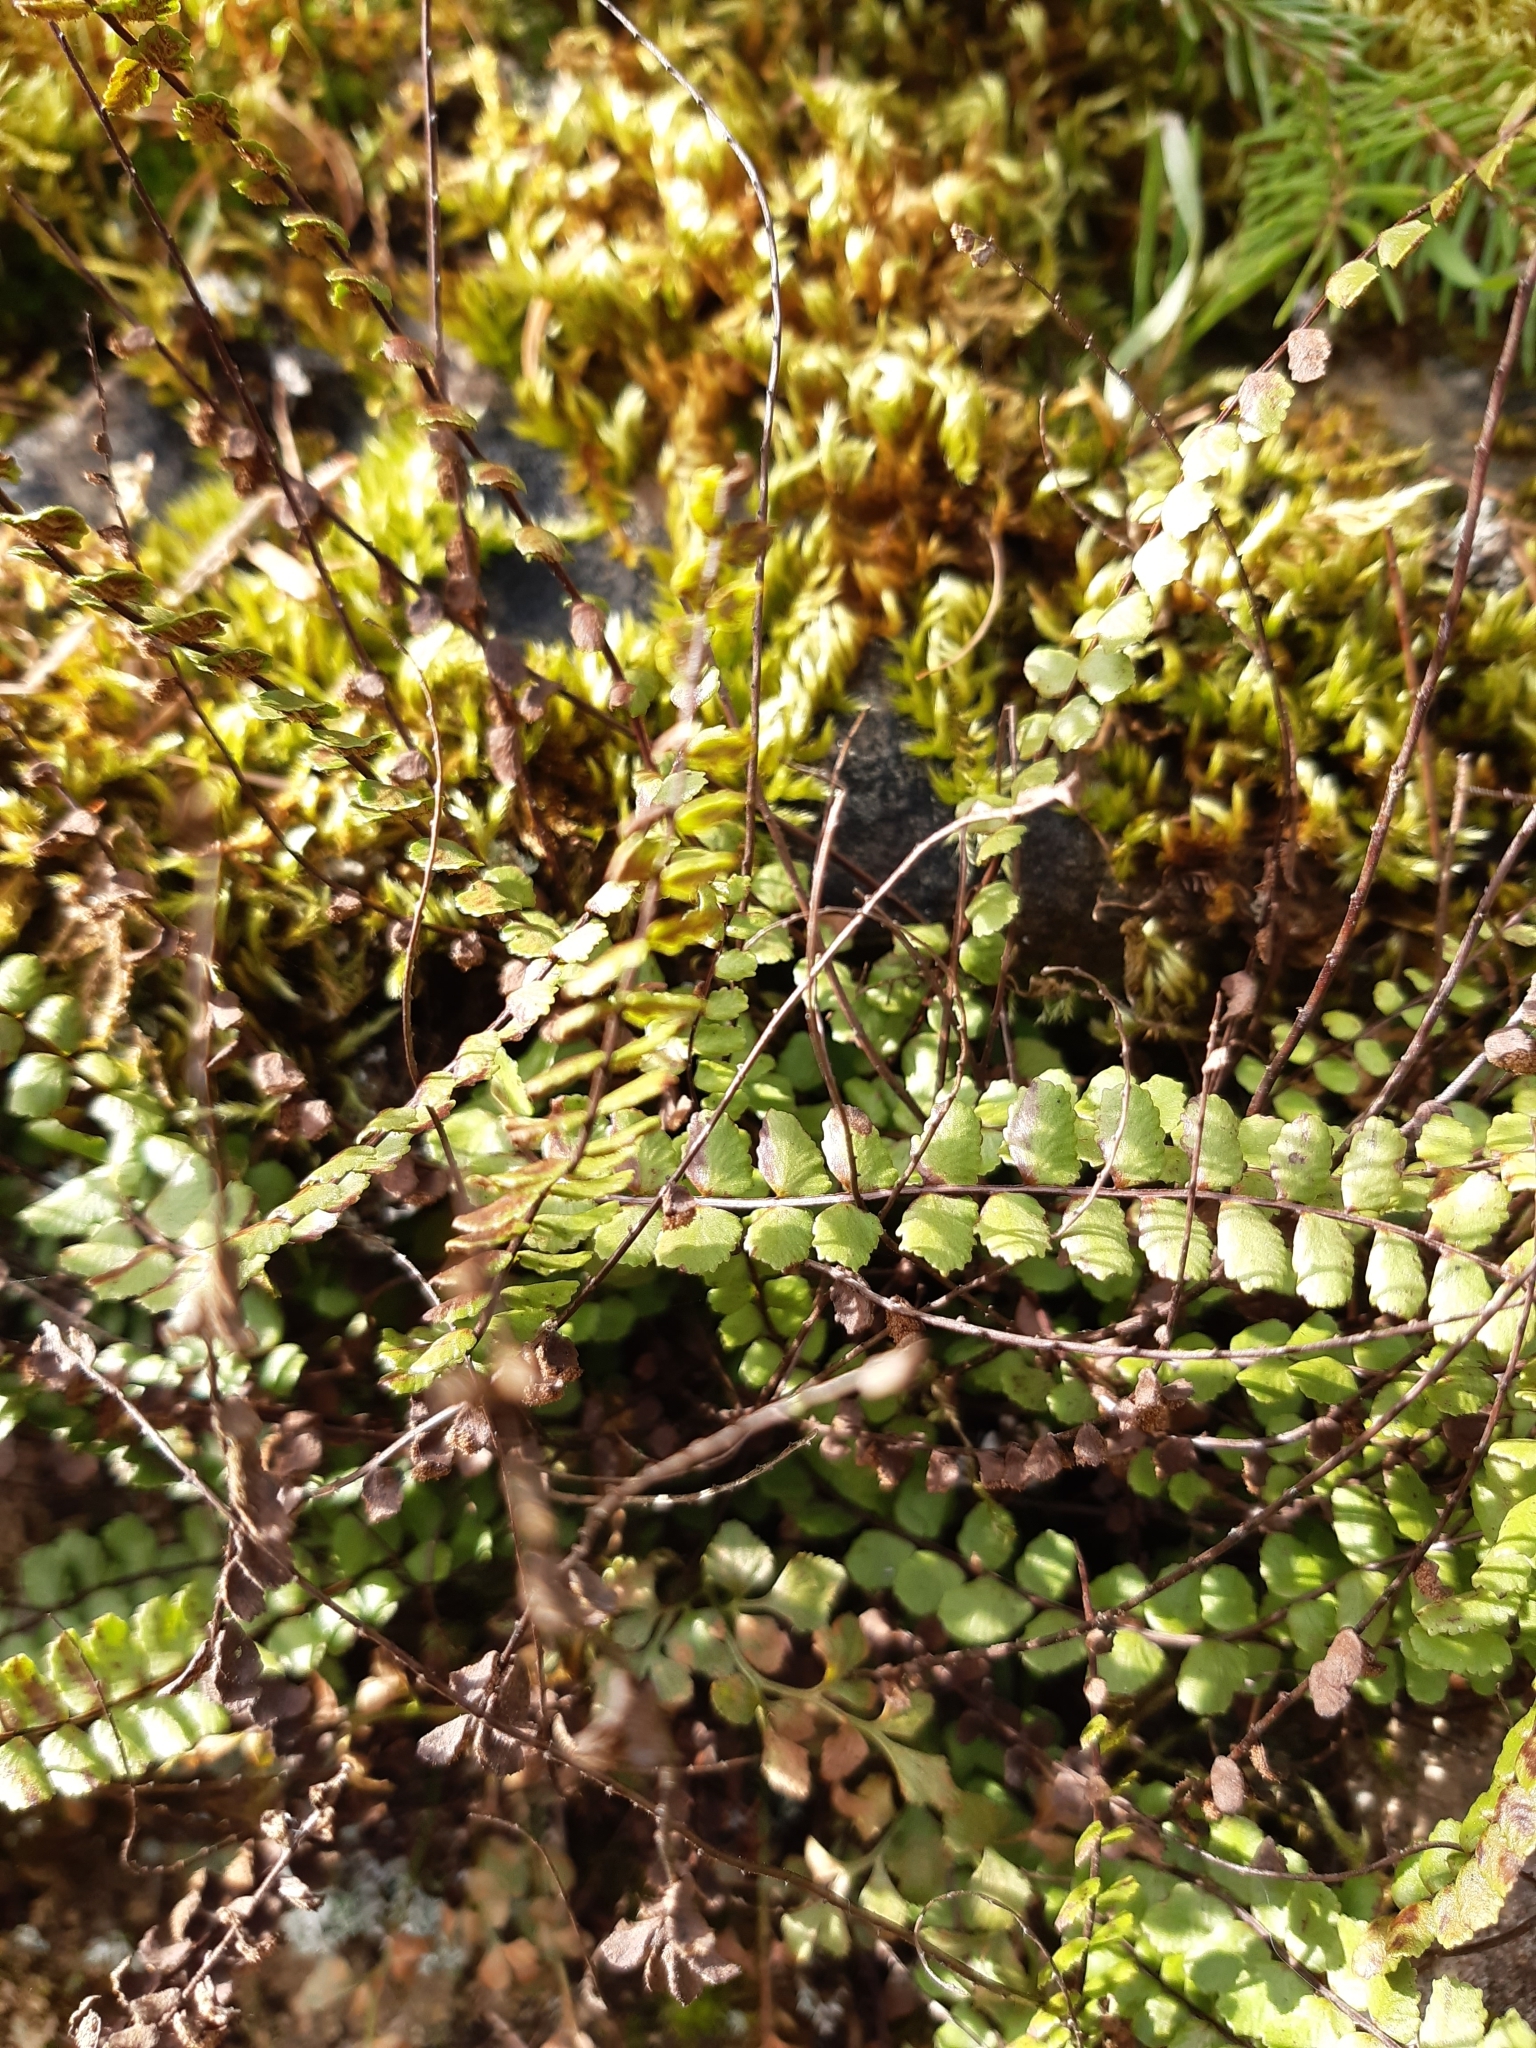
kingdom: Plantae
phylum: Tracheophyta
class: Polypodiopsida
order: Polypodiales
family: Aspleniaceae
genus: Asplenium
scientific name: Asplenium trichomanes
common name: Maidenhair spleenwort
